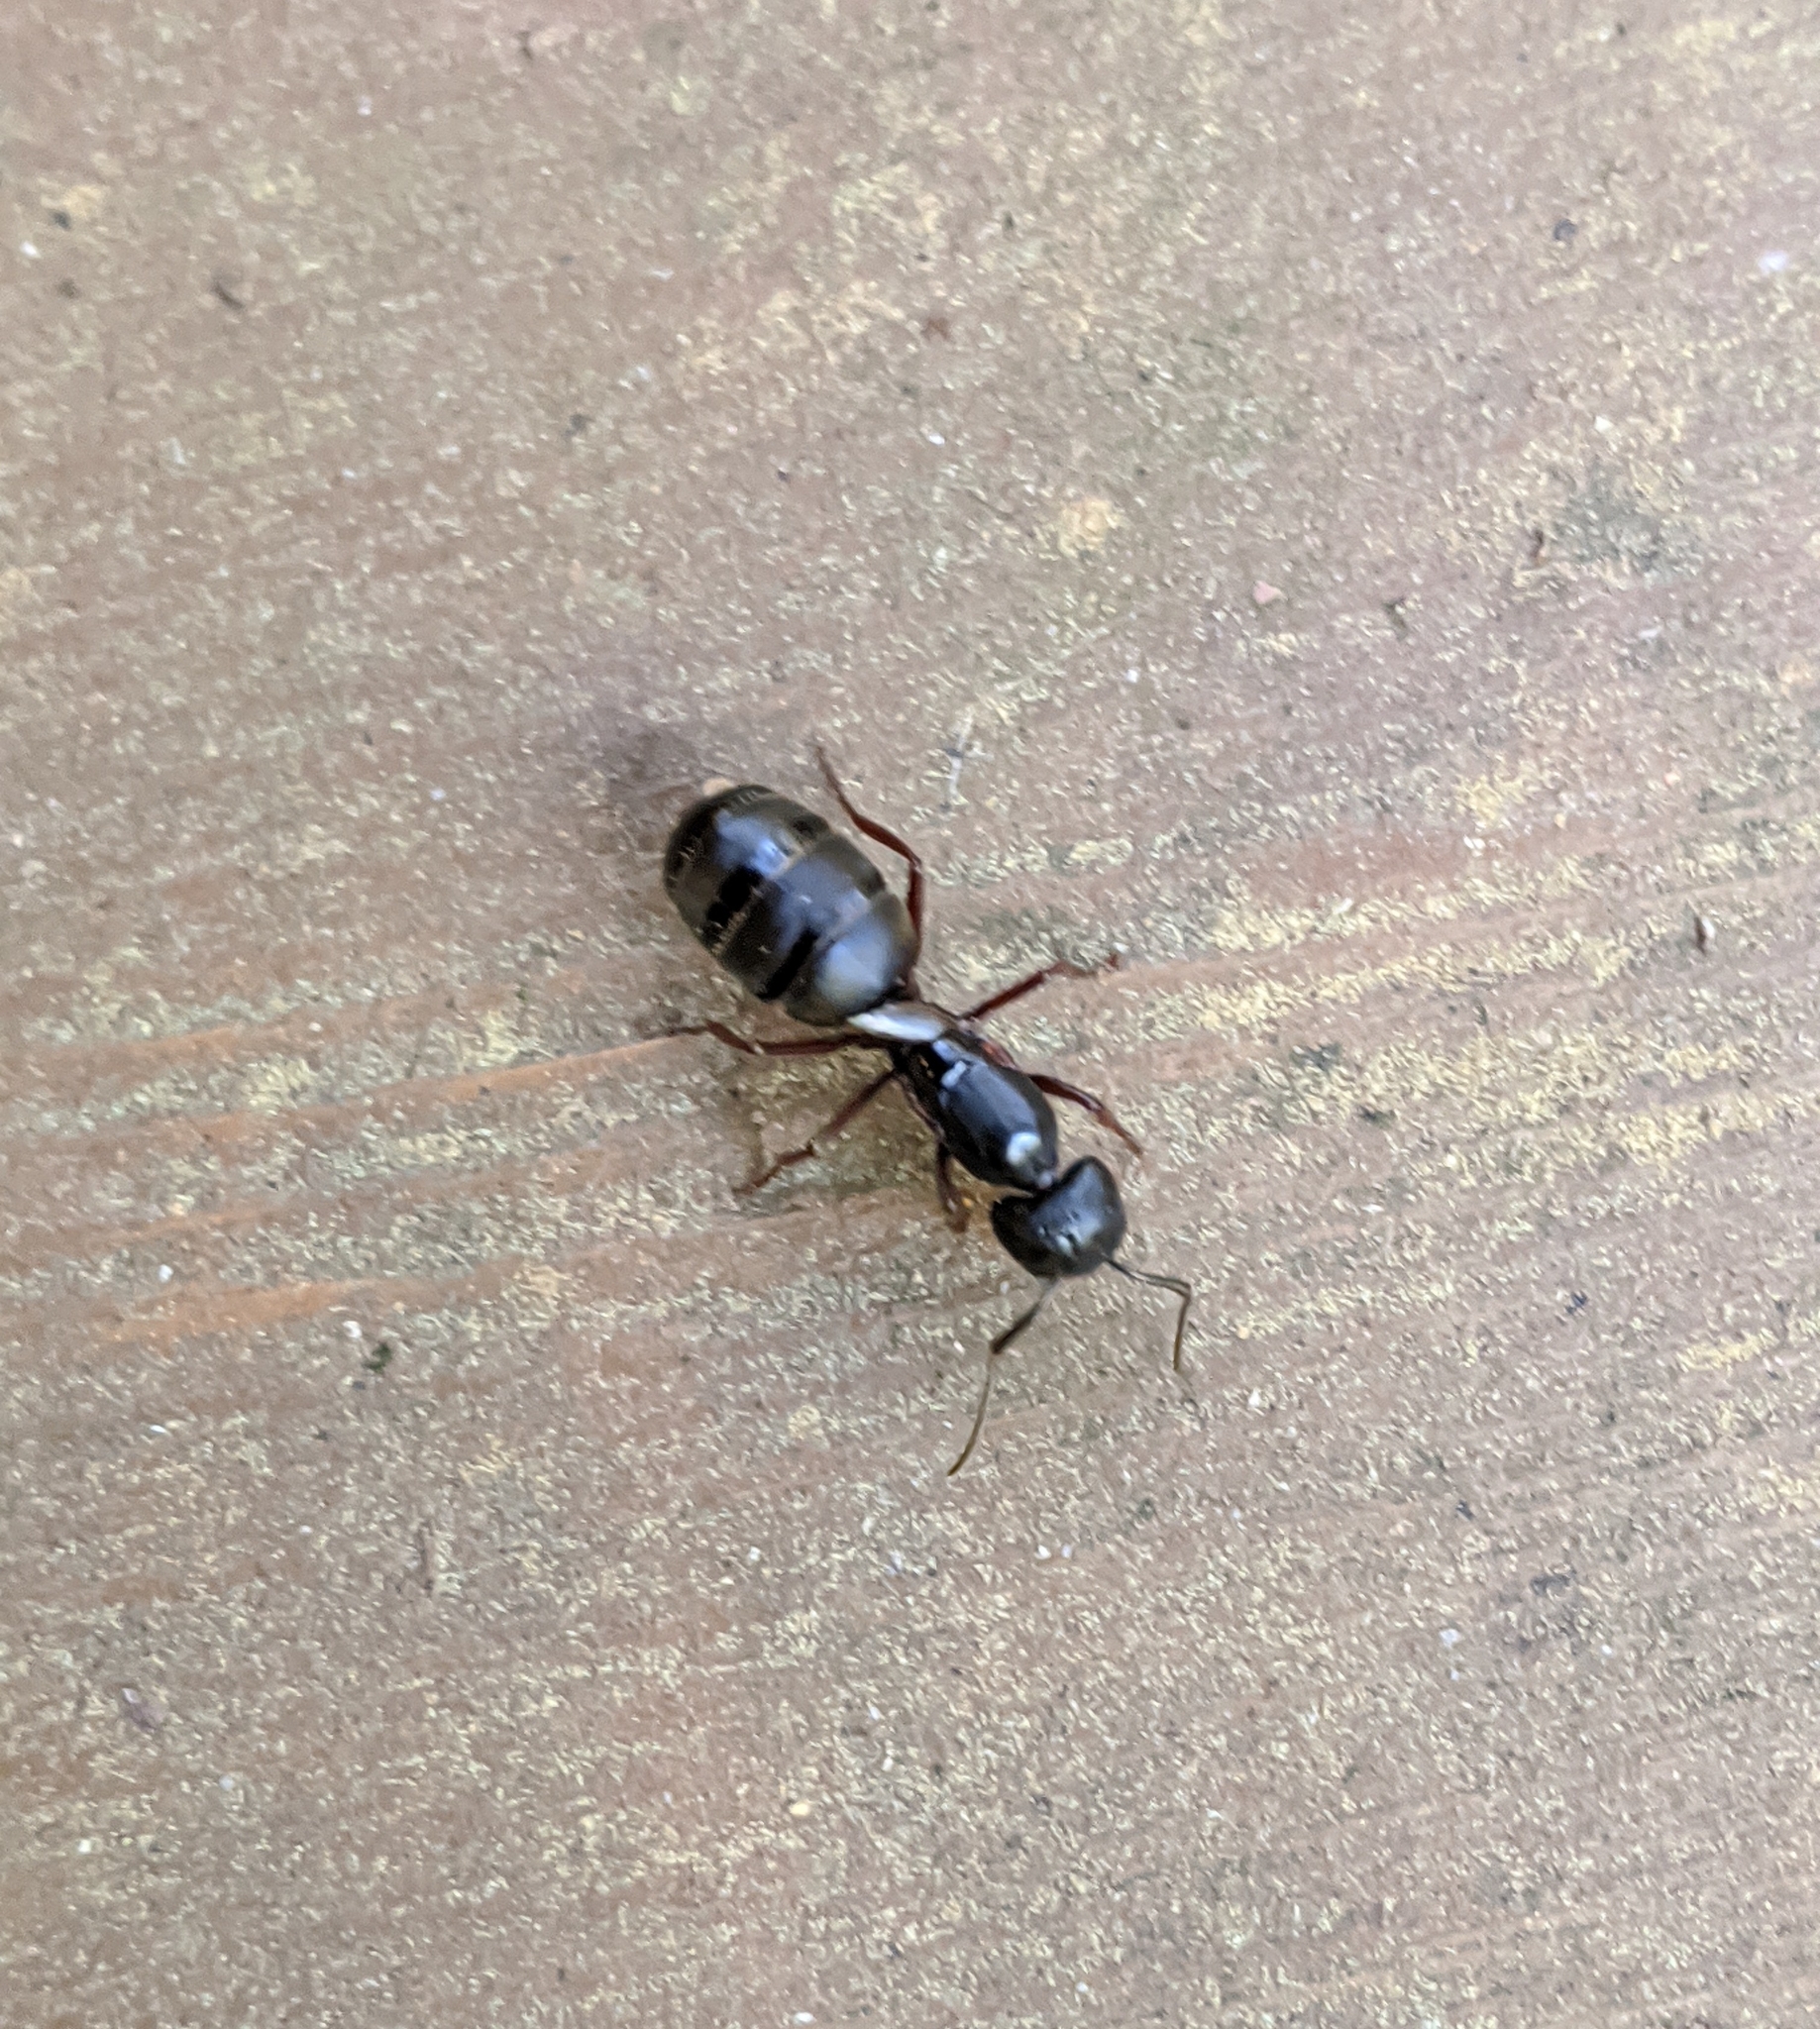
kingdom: Animalia
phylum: Arthropoda
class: Insecta
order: Hymenoptera
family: Formicidae
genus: Camponotus
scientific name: Camponotus modoc
